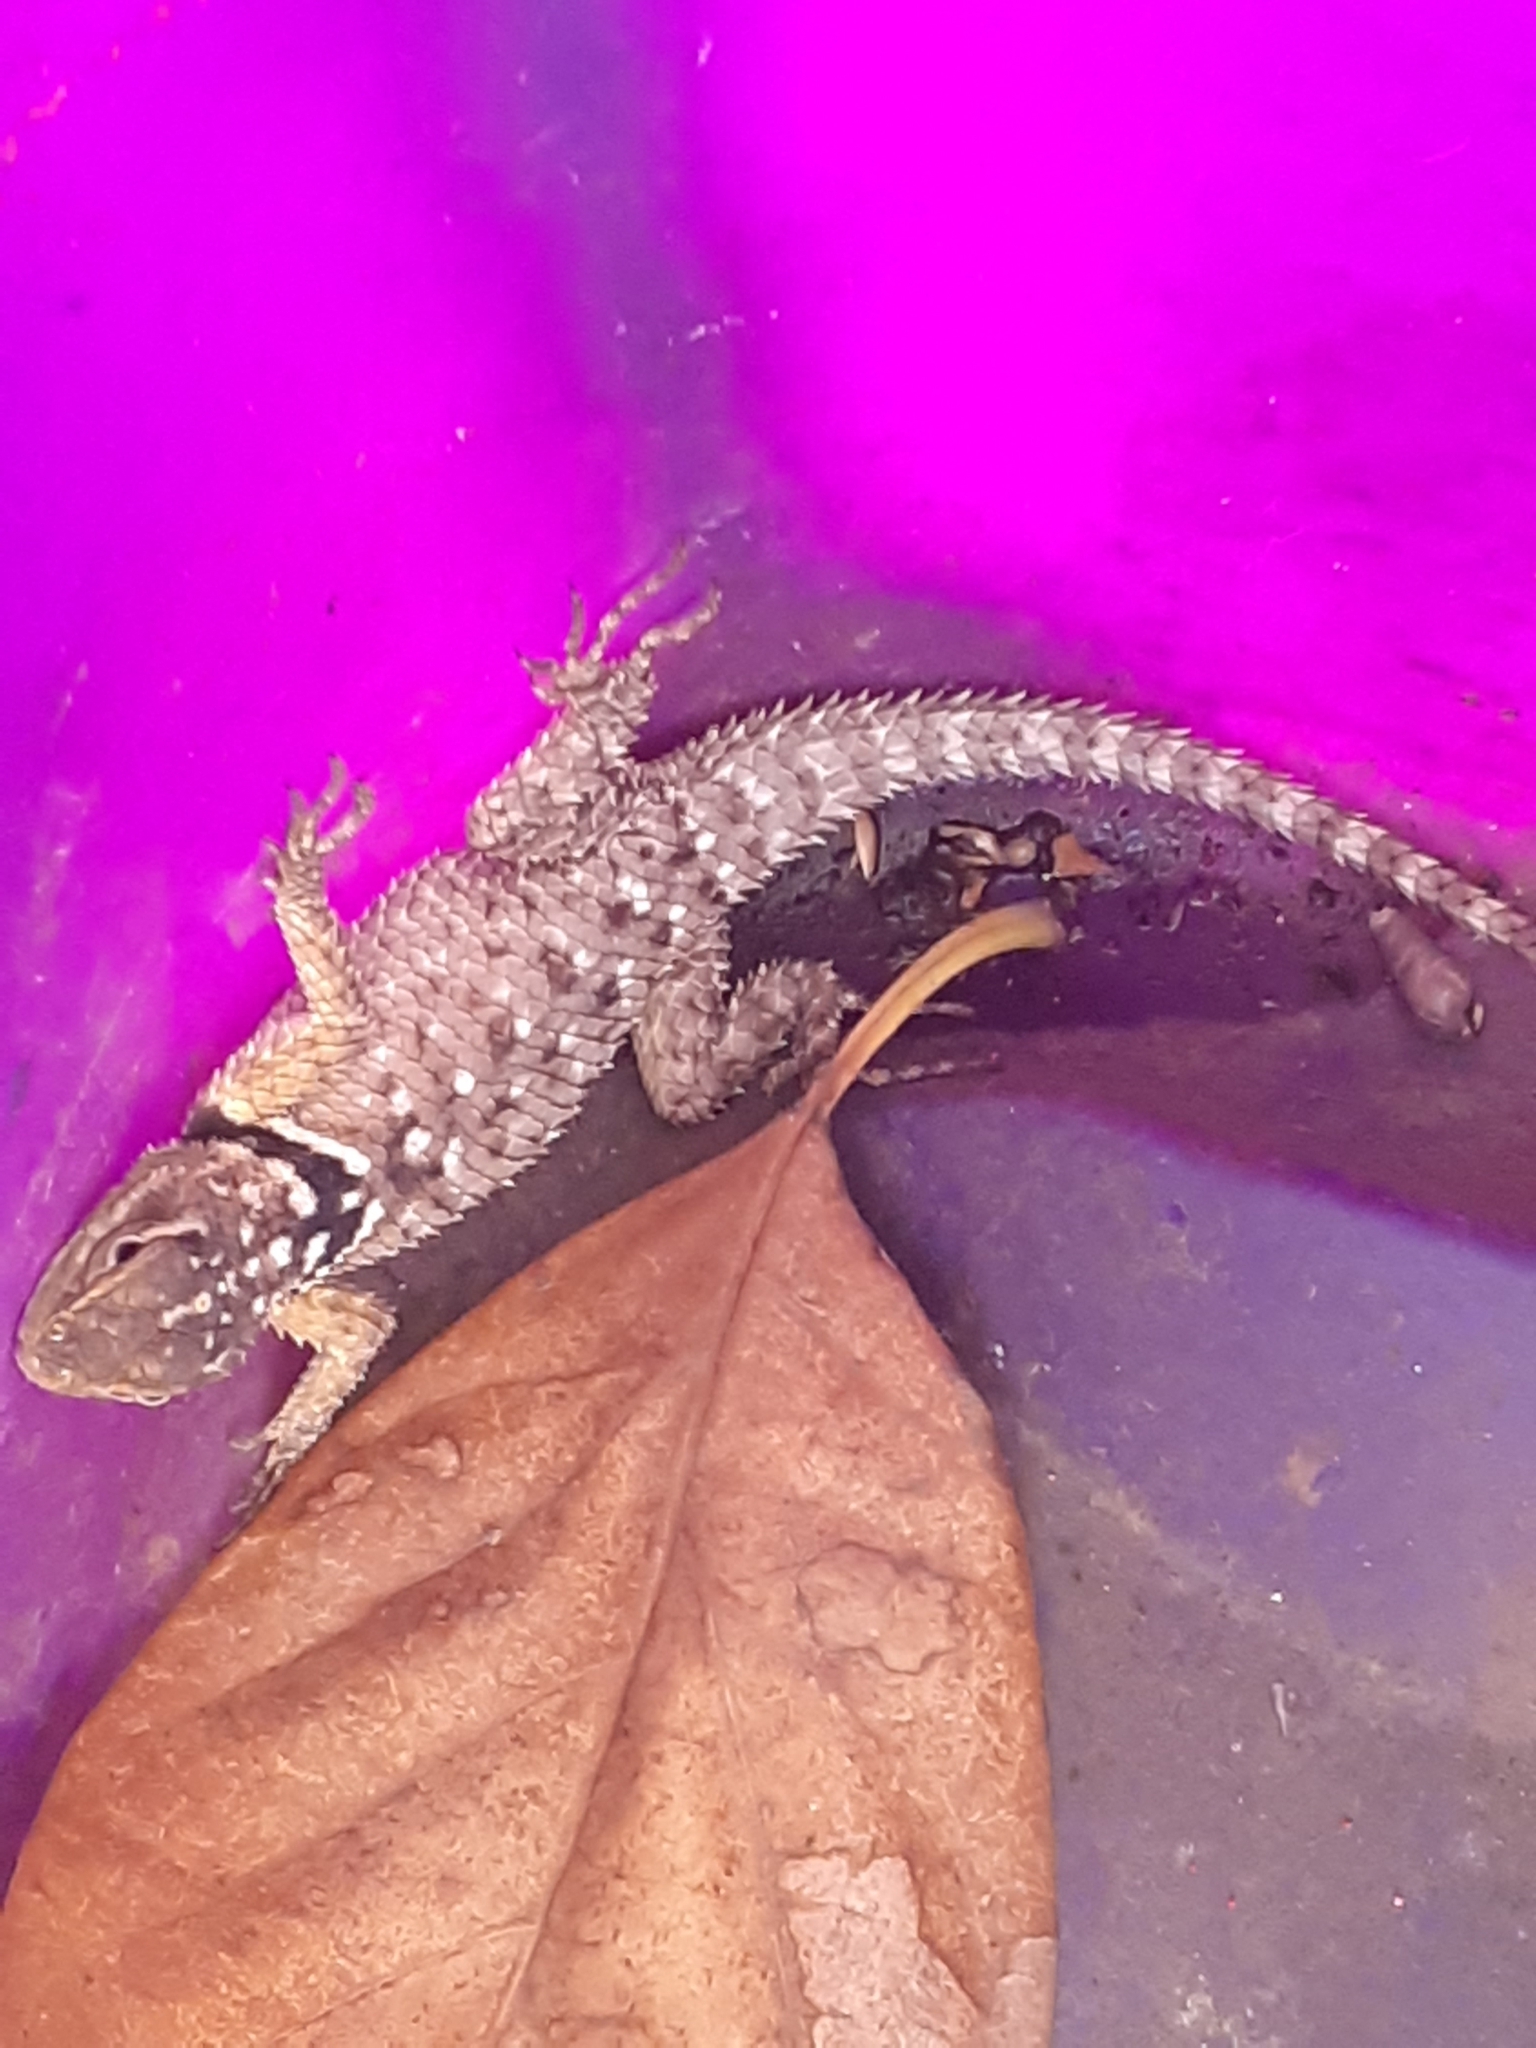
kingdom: Animalia
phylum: Chordata
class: Squamata
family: Phrynosomatidae
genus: Sceloporus
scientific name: Sceloporus cyanogenys
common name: Blue spiny lizard
